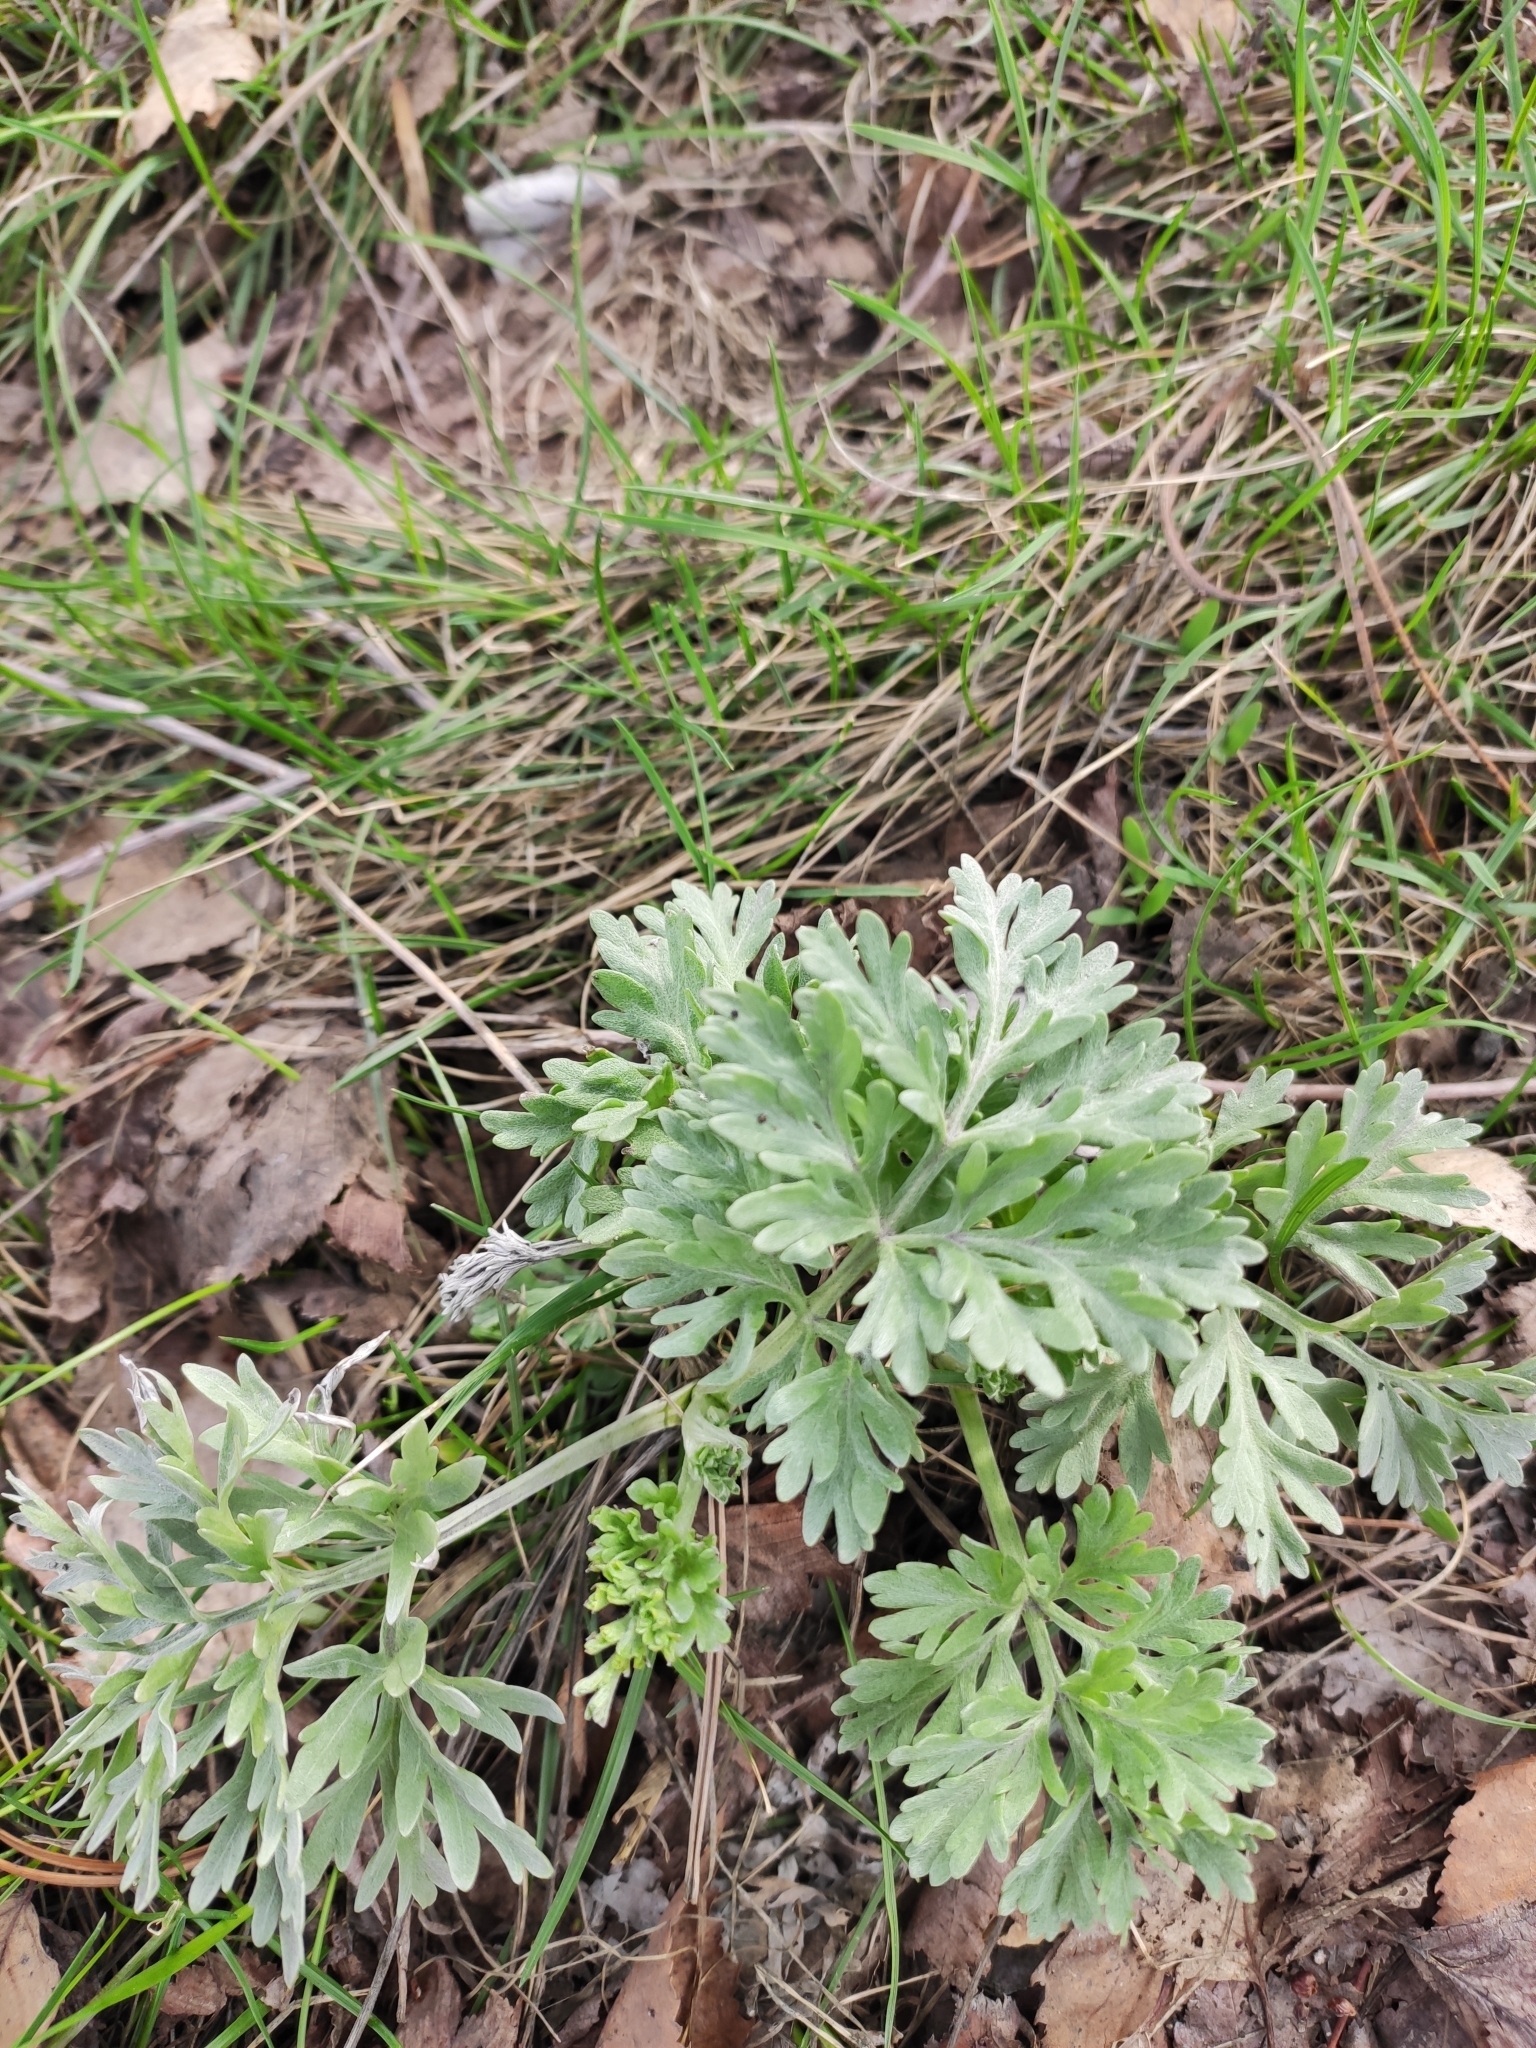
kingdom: Plantae
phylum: Tracheophyta
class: Magnoliopsida
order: Asterales
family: Asteraceae
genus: Artemisia
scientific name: Artemisia absinthium
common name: Wormwood
